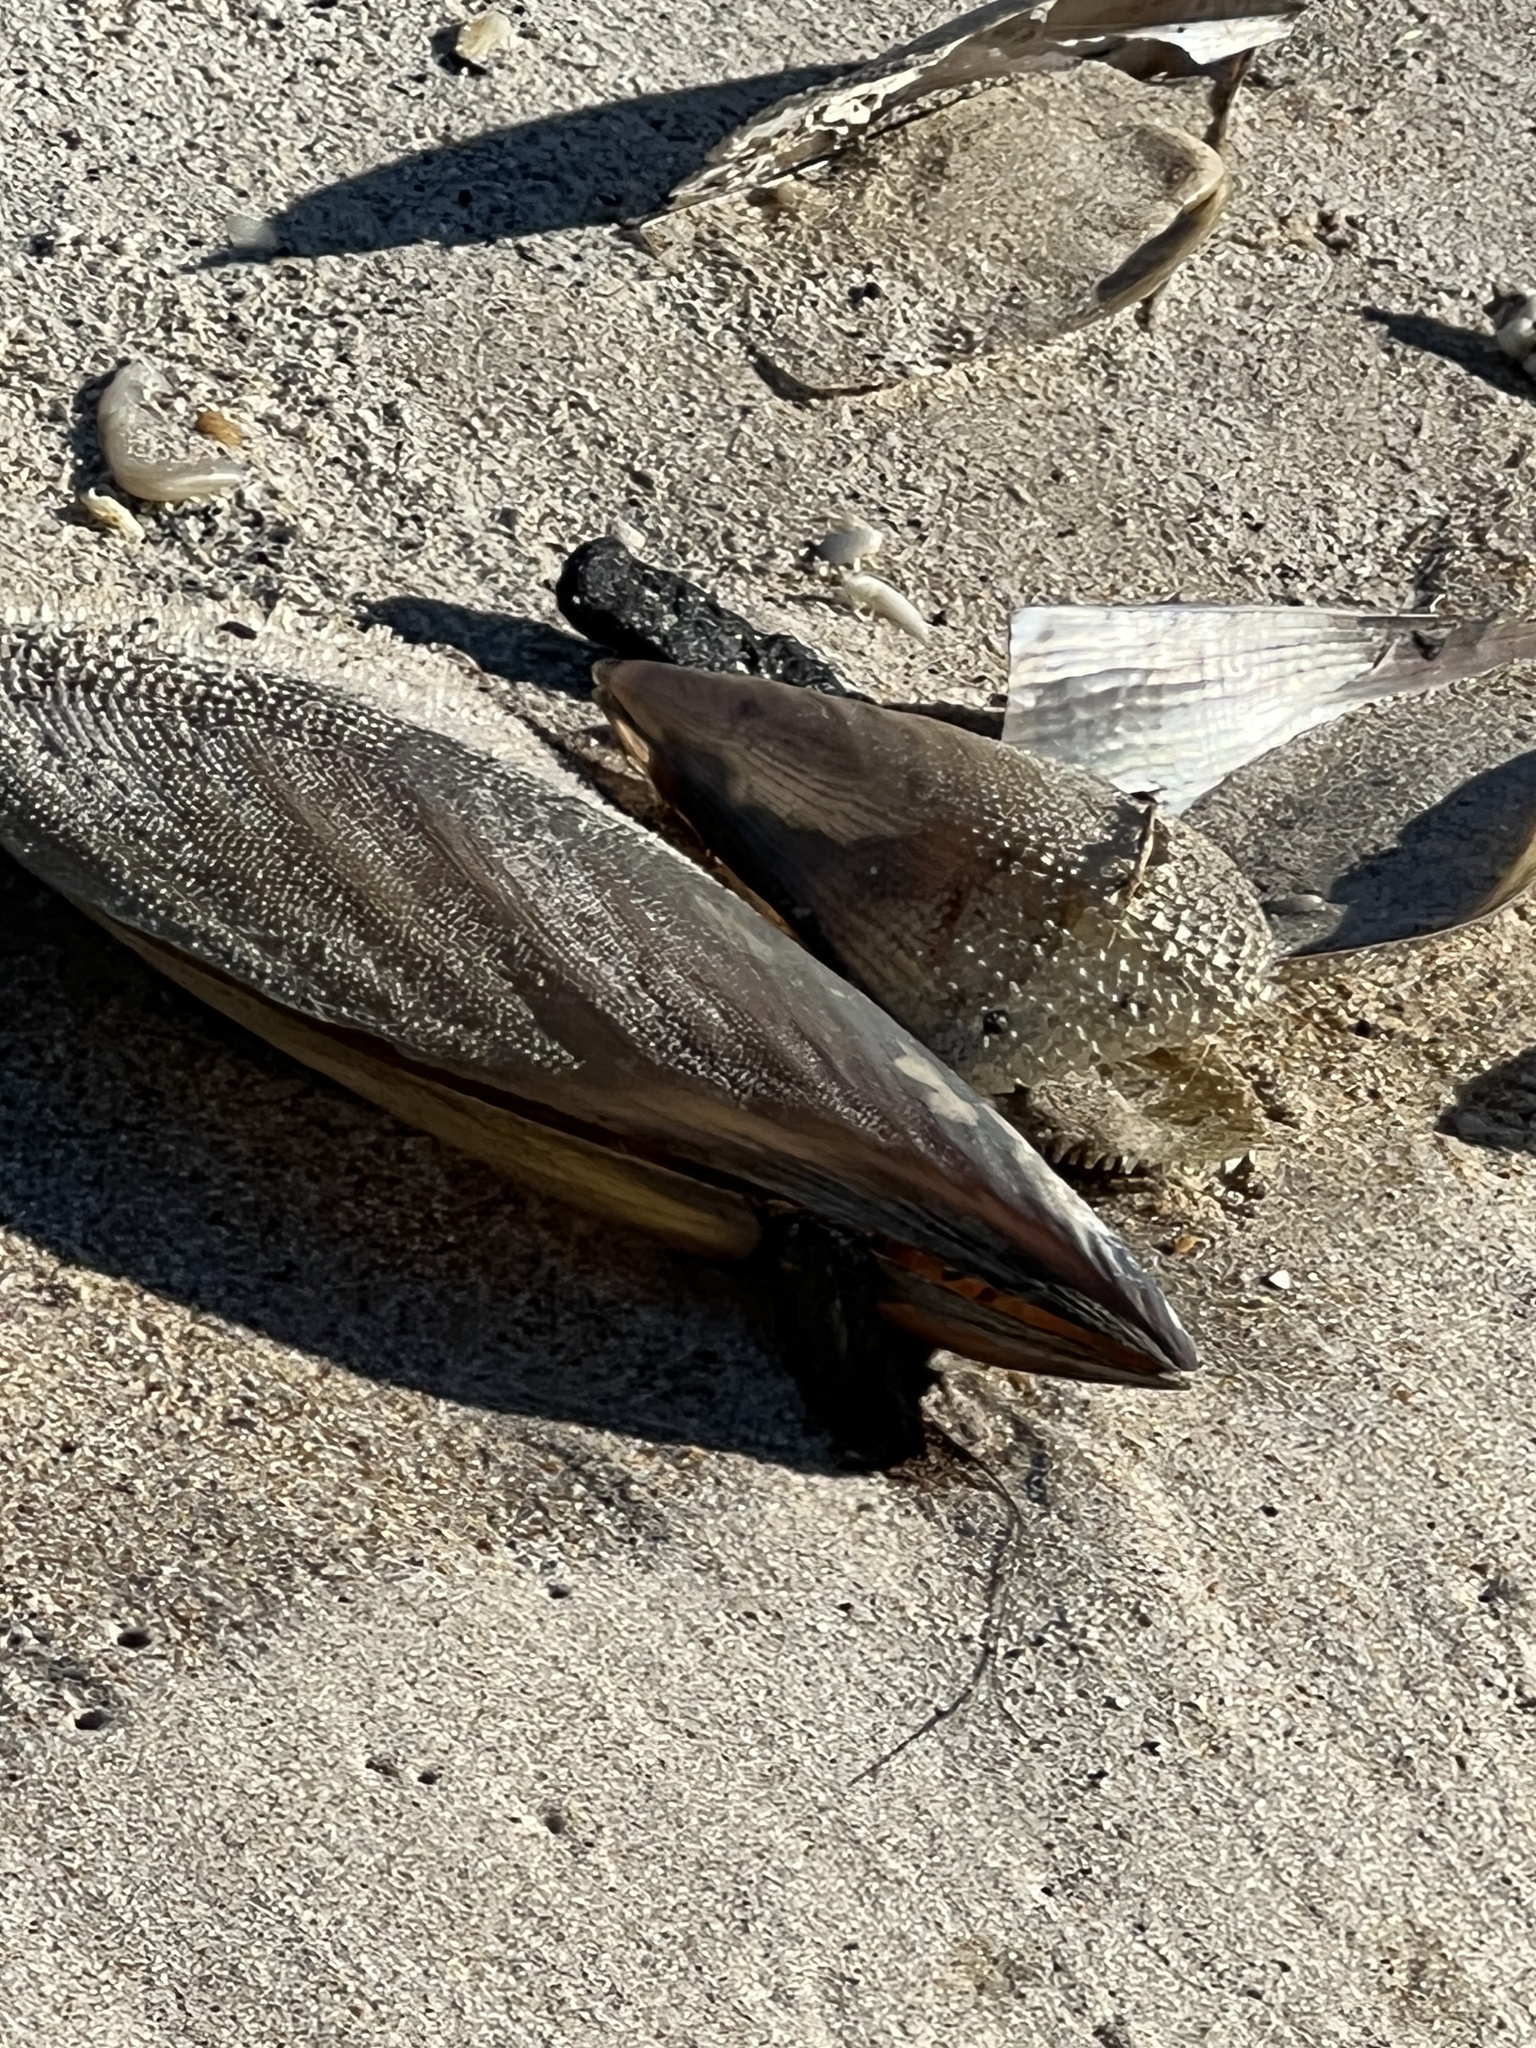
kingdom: Animalia
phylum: Mollusca
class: Bivalvia
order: Ostreida
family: Pinnidae
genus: Atrina
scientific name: Atrina serrata
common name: Saw-toothed penshell
